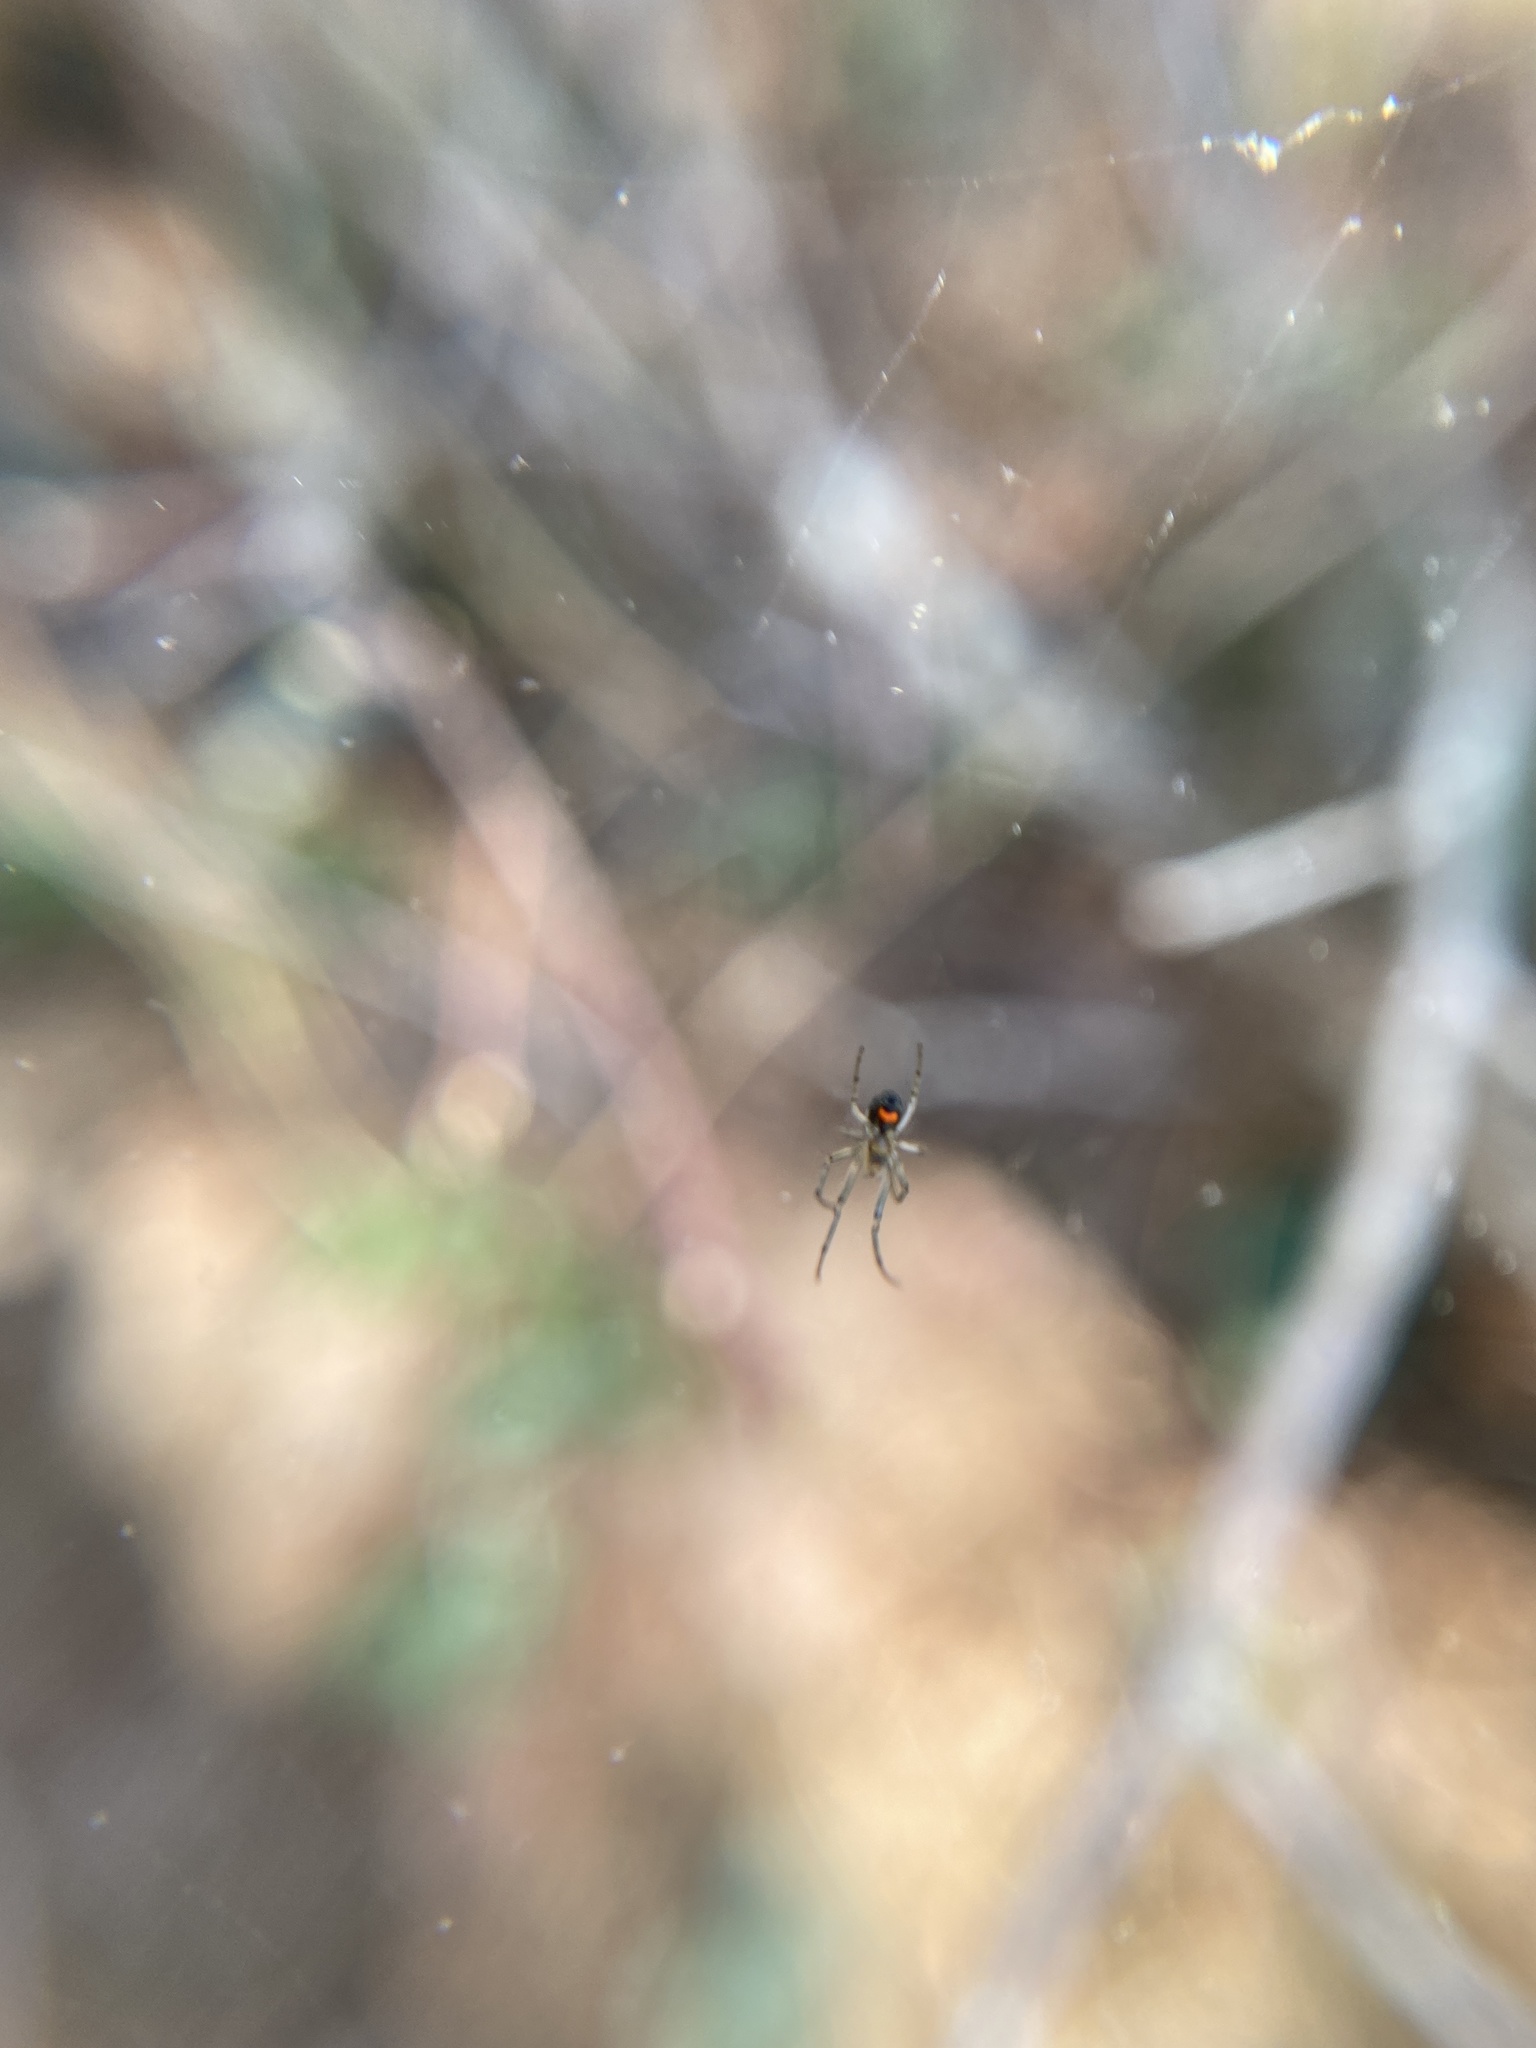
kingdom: Animalia
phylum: Arthropoda
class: Arachnida
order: Araneae
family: Tetragnathidae
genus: Leucauge
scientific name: Leucauge venusta
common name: Longjawed orb weavers
